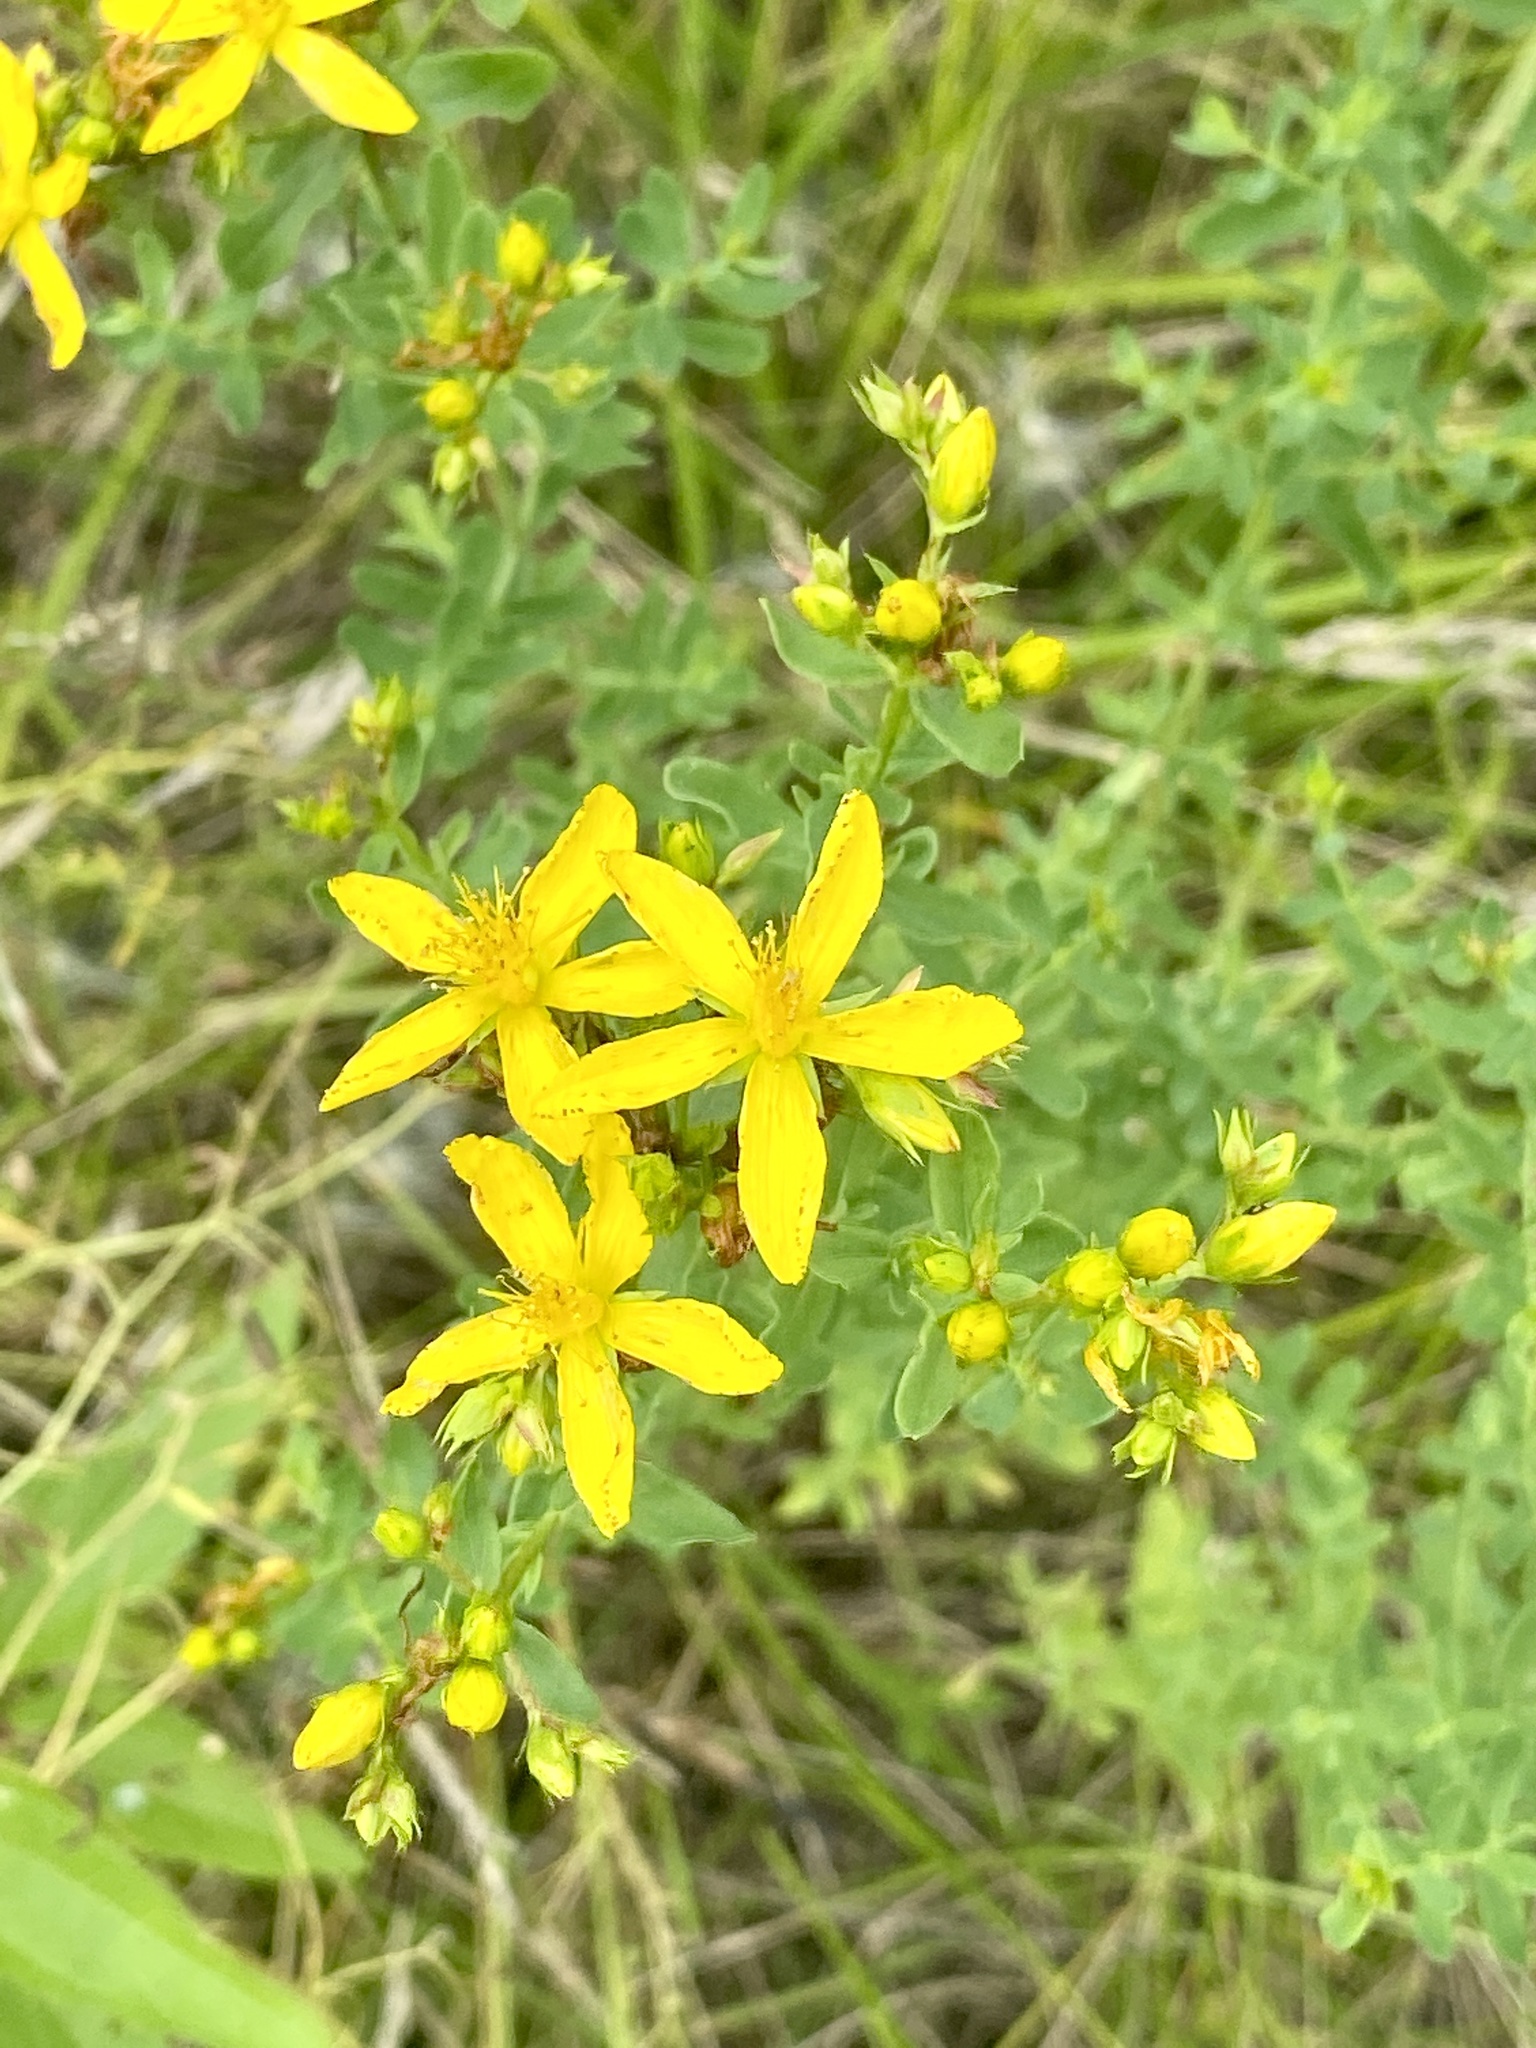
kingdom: Plantae
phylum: Tracheophyta
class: Magnoliopsida
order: Malpighiales
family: Hypericaceae
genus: Hypericum
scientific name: Hypericum perforatum
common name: Common st. johnswort
